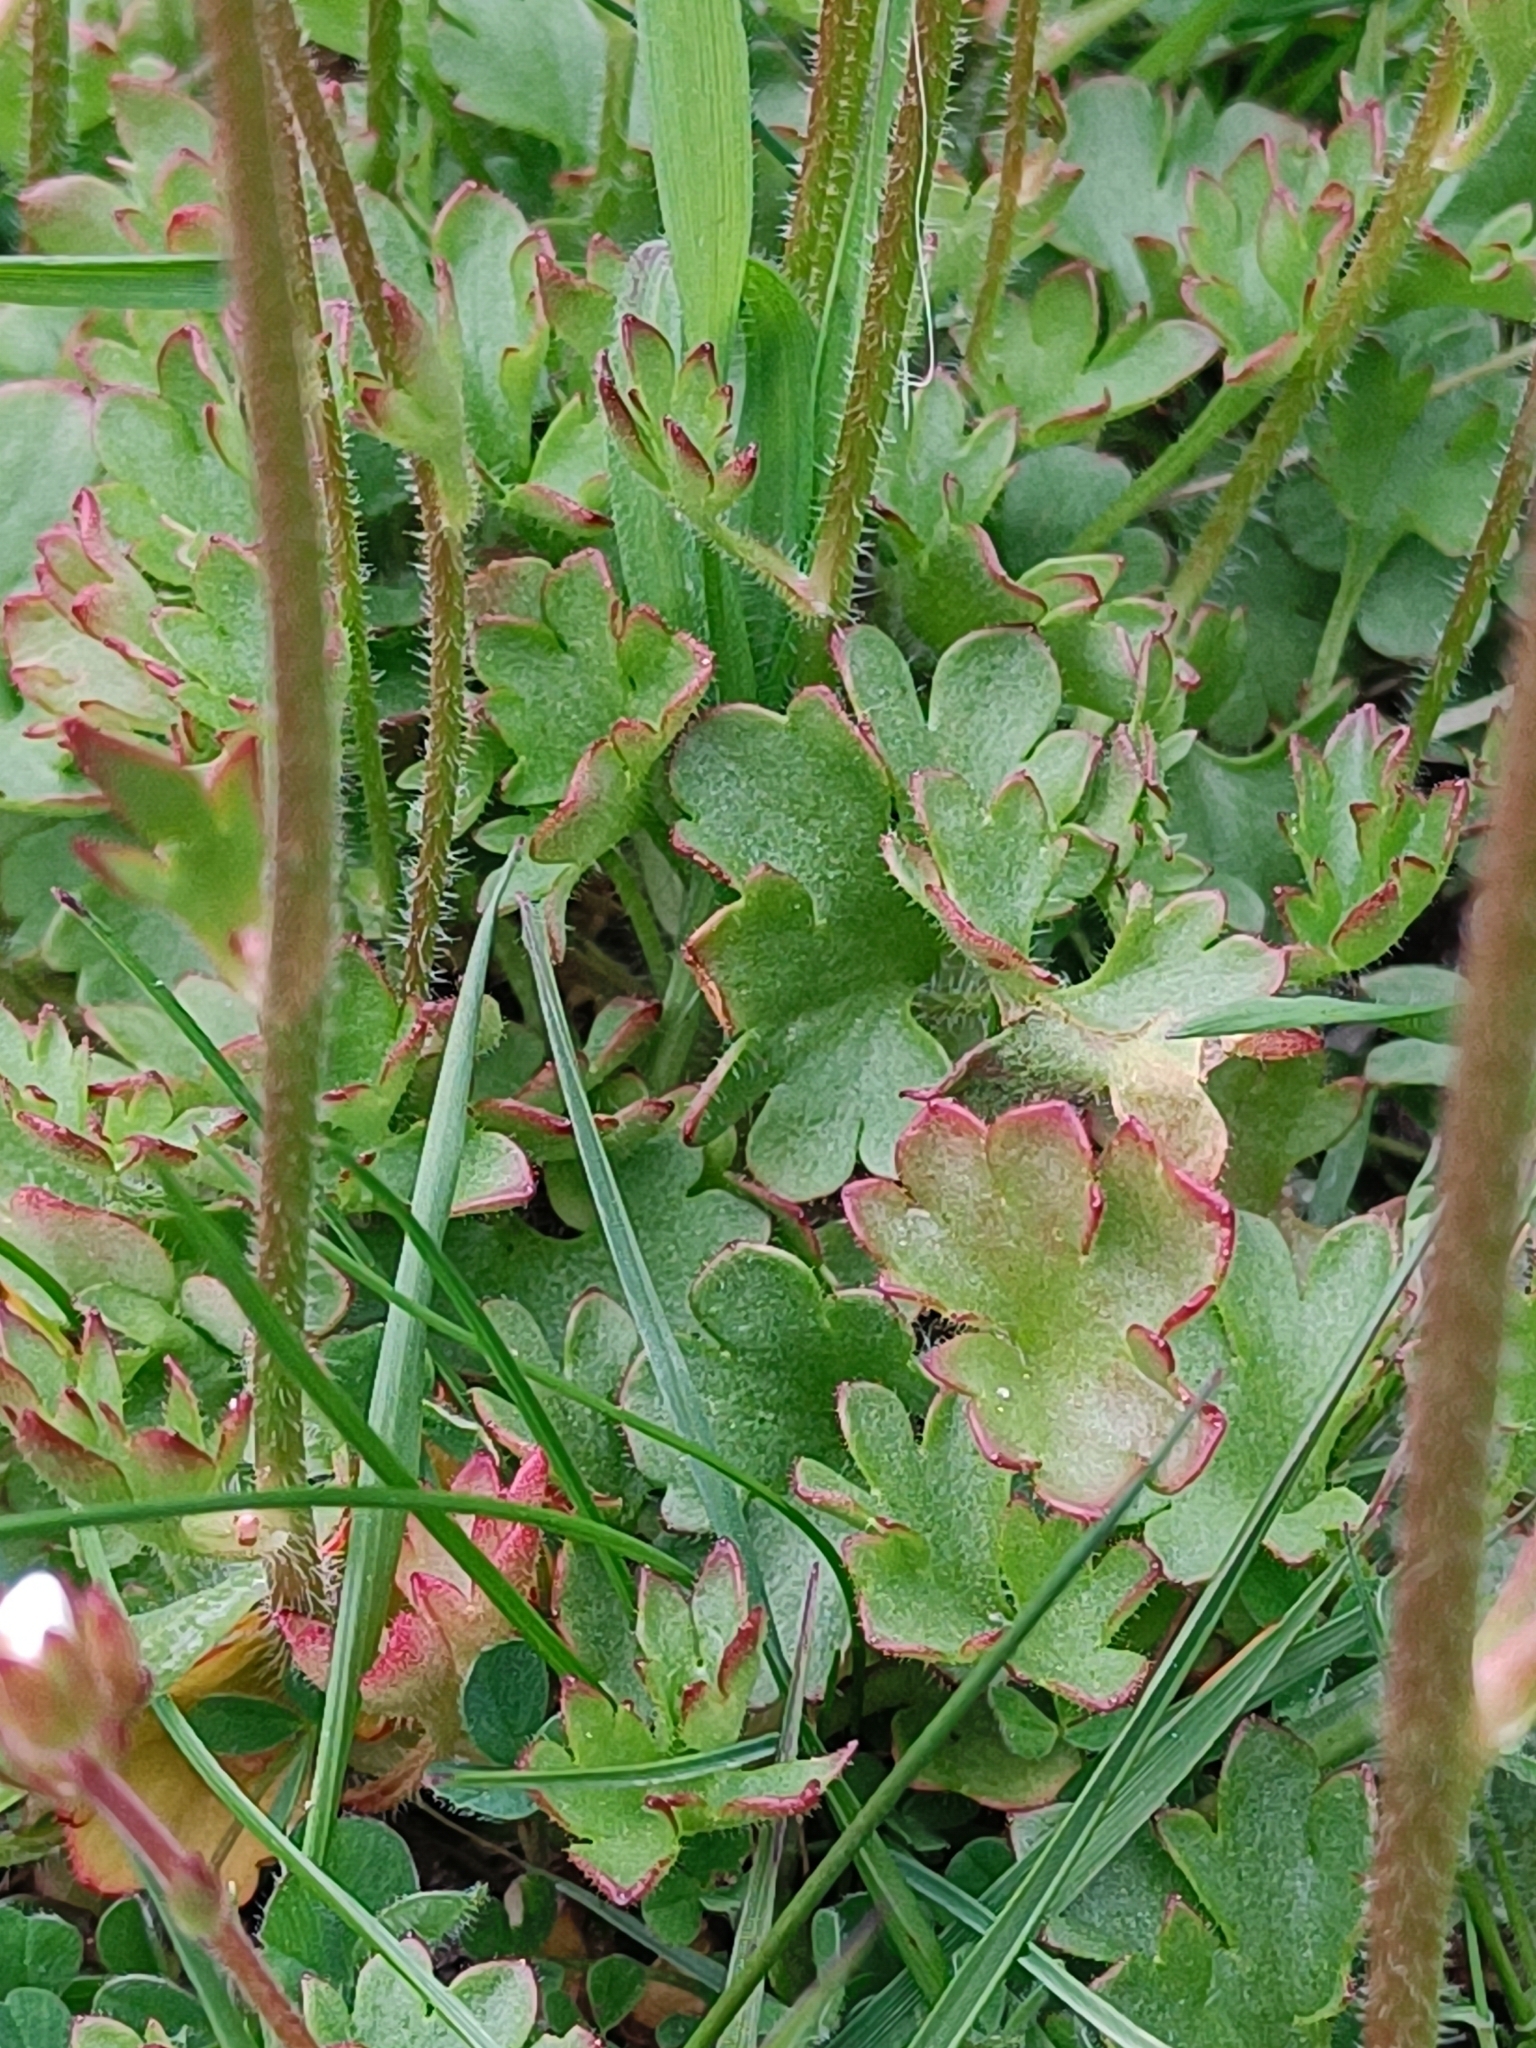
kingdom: Plantae
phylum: Tracheophyta
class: Magnoliopsida
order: Saxifragales
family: Saxifragaceae
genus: Saxifraga
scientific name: Saxifraga granulata
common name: Meadow saxifrage
